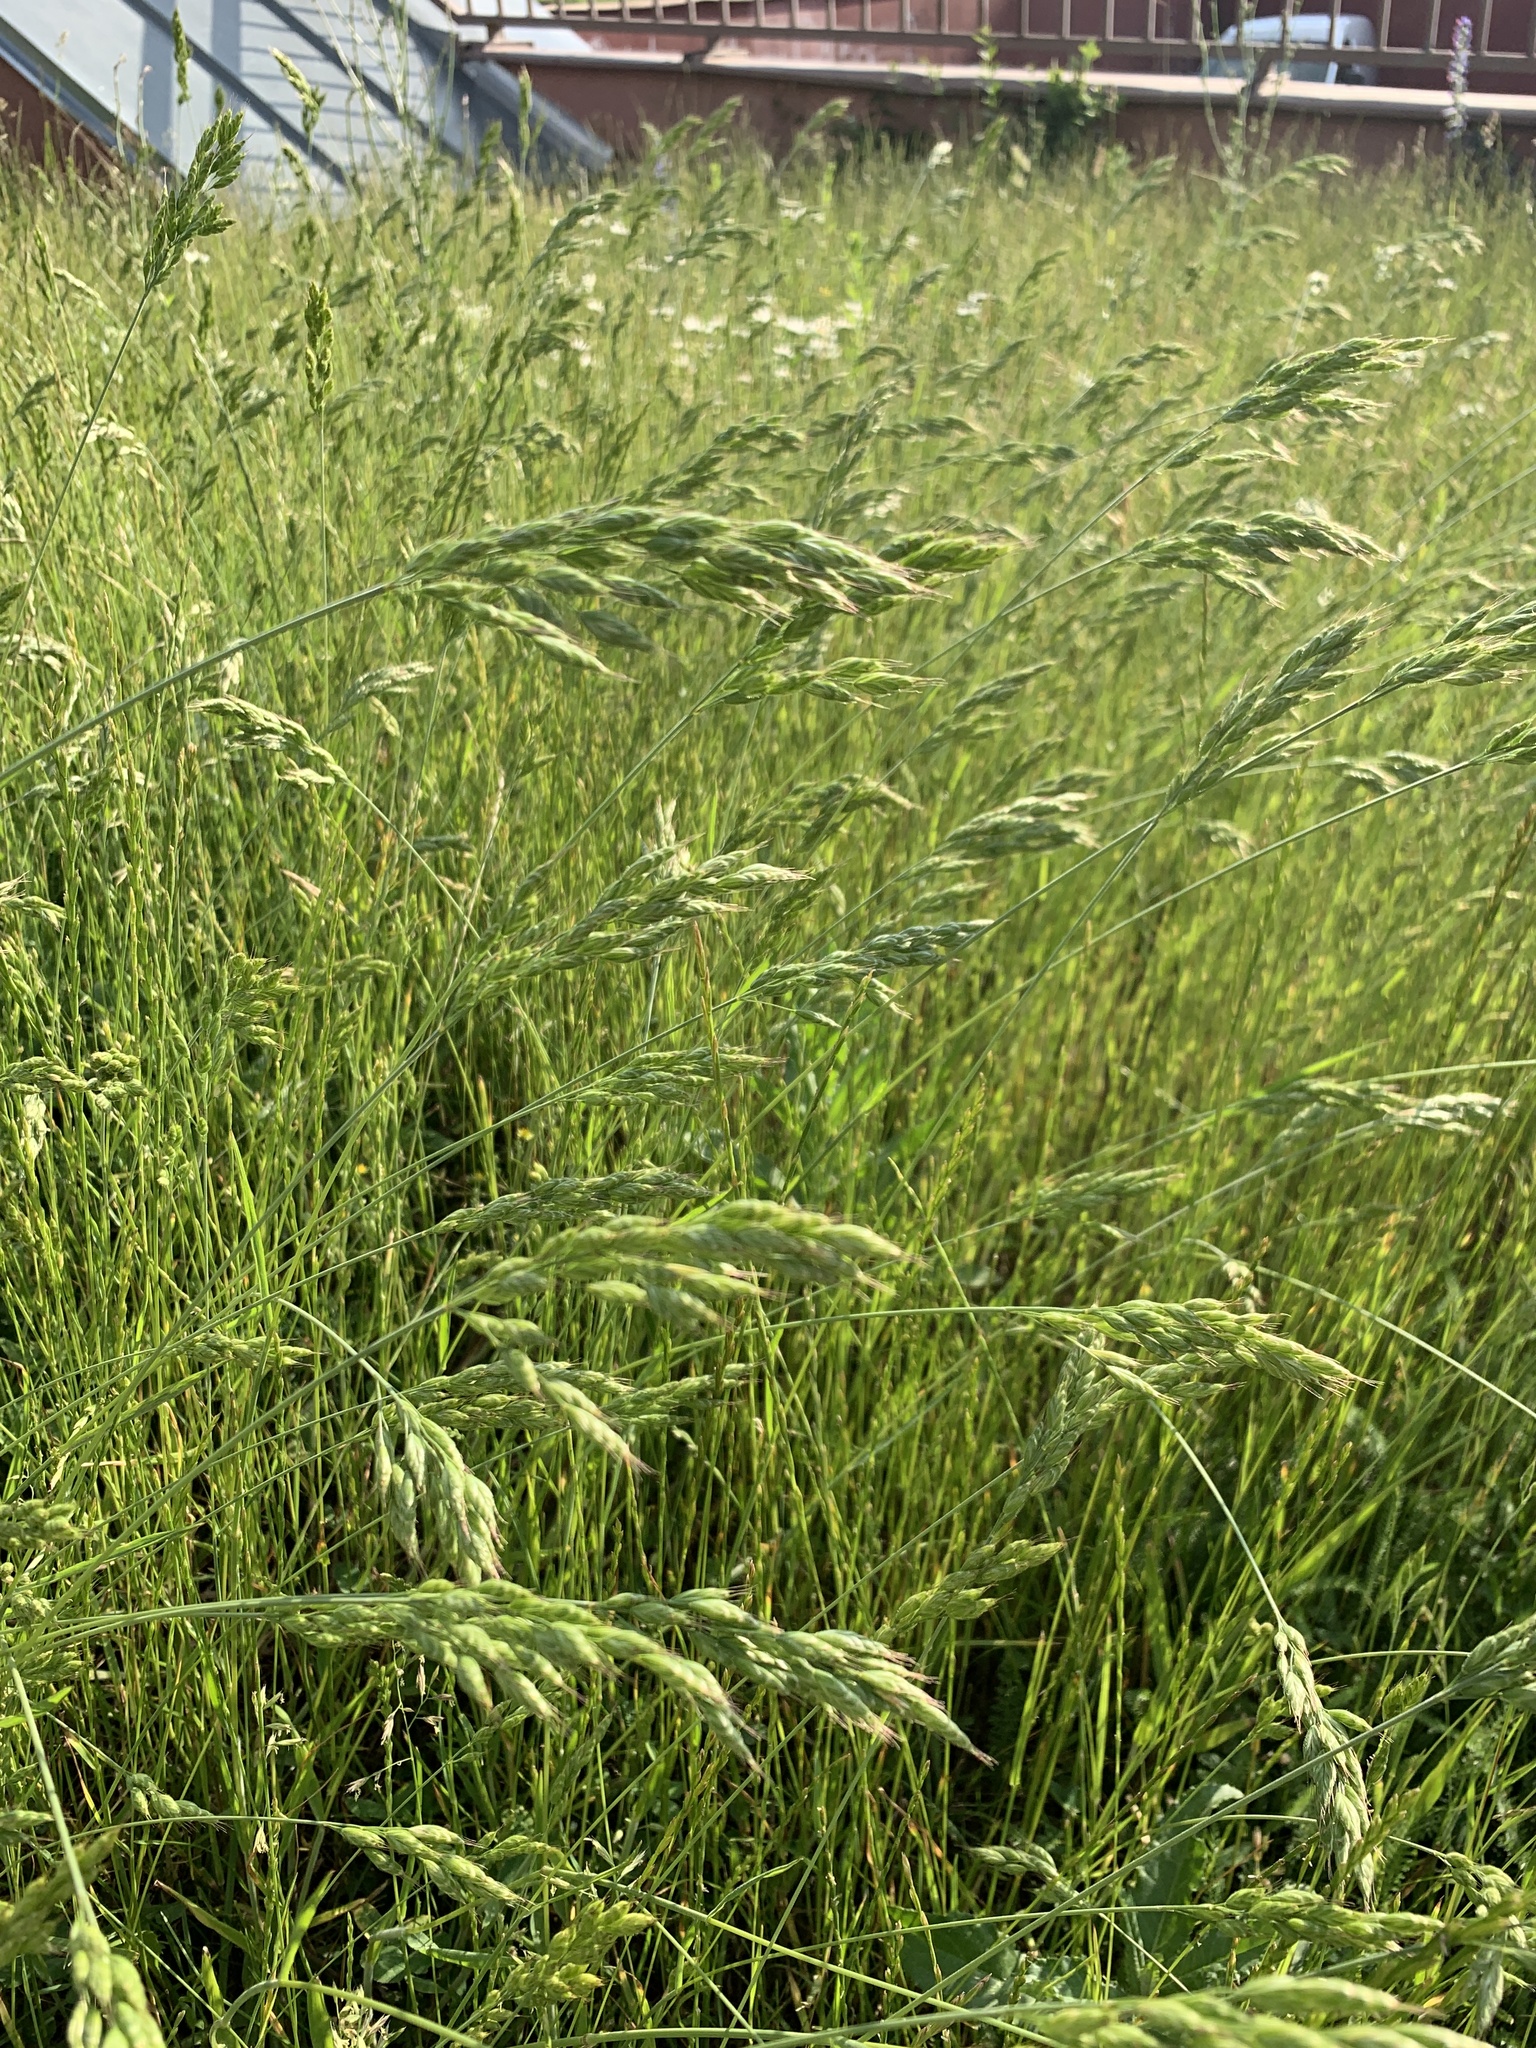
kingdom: Plantae
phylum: Tracheophyta
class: Liliopsida
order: Poales
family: Poaceae
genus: Bromus
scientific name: Bromus hordeaceus
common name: Soft brome
